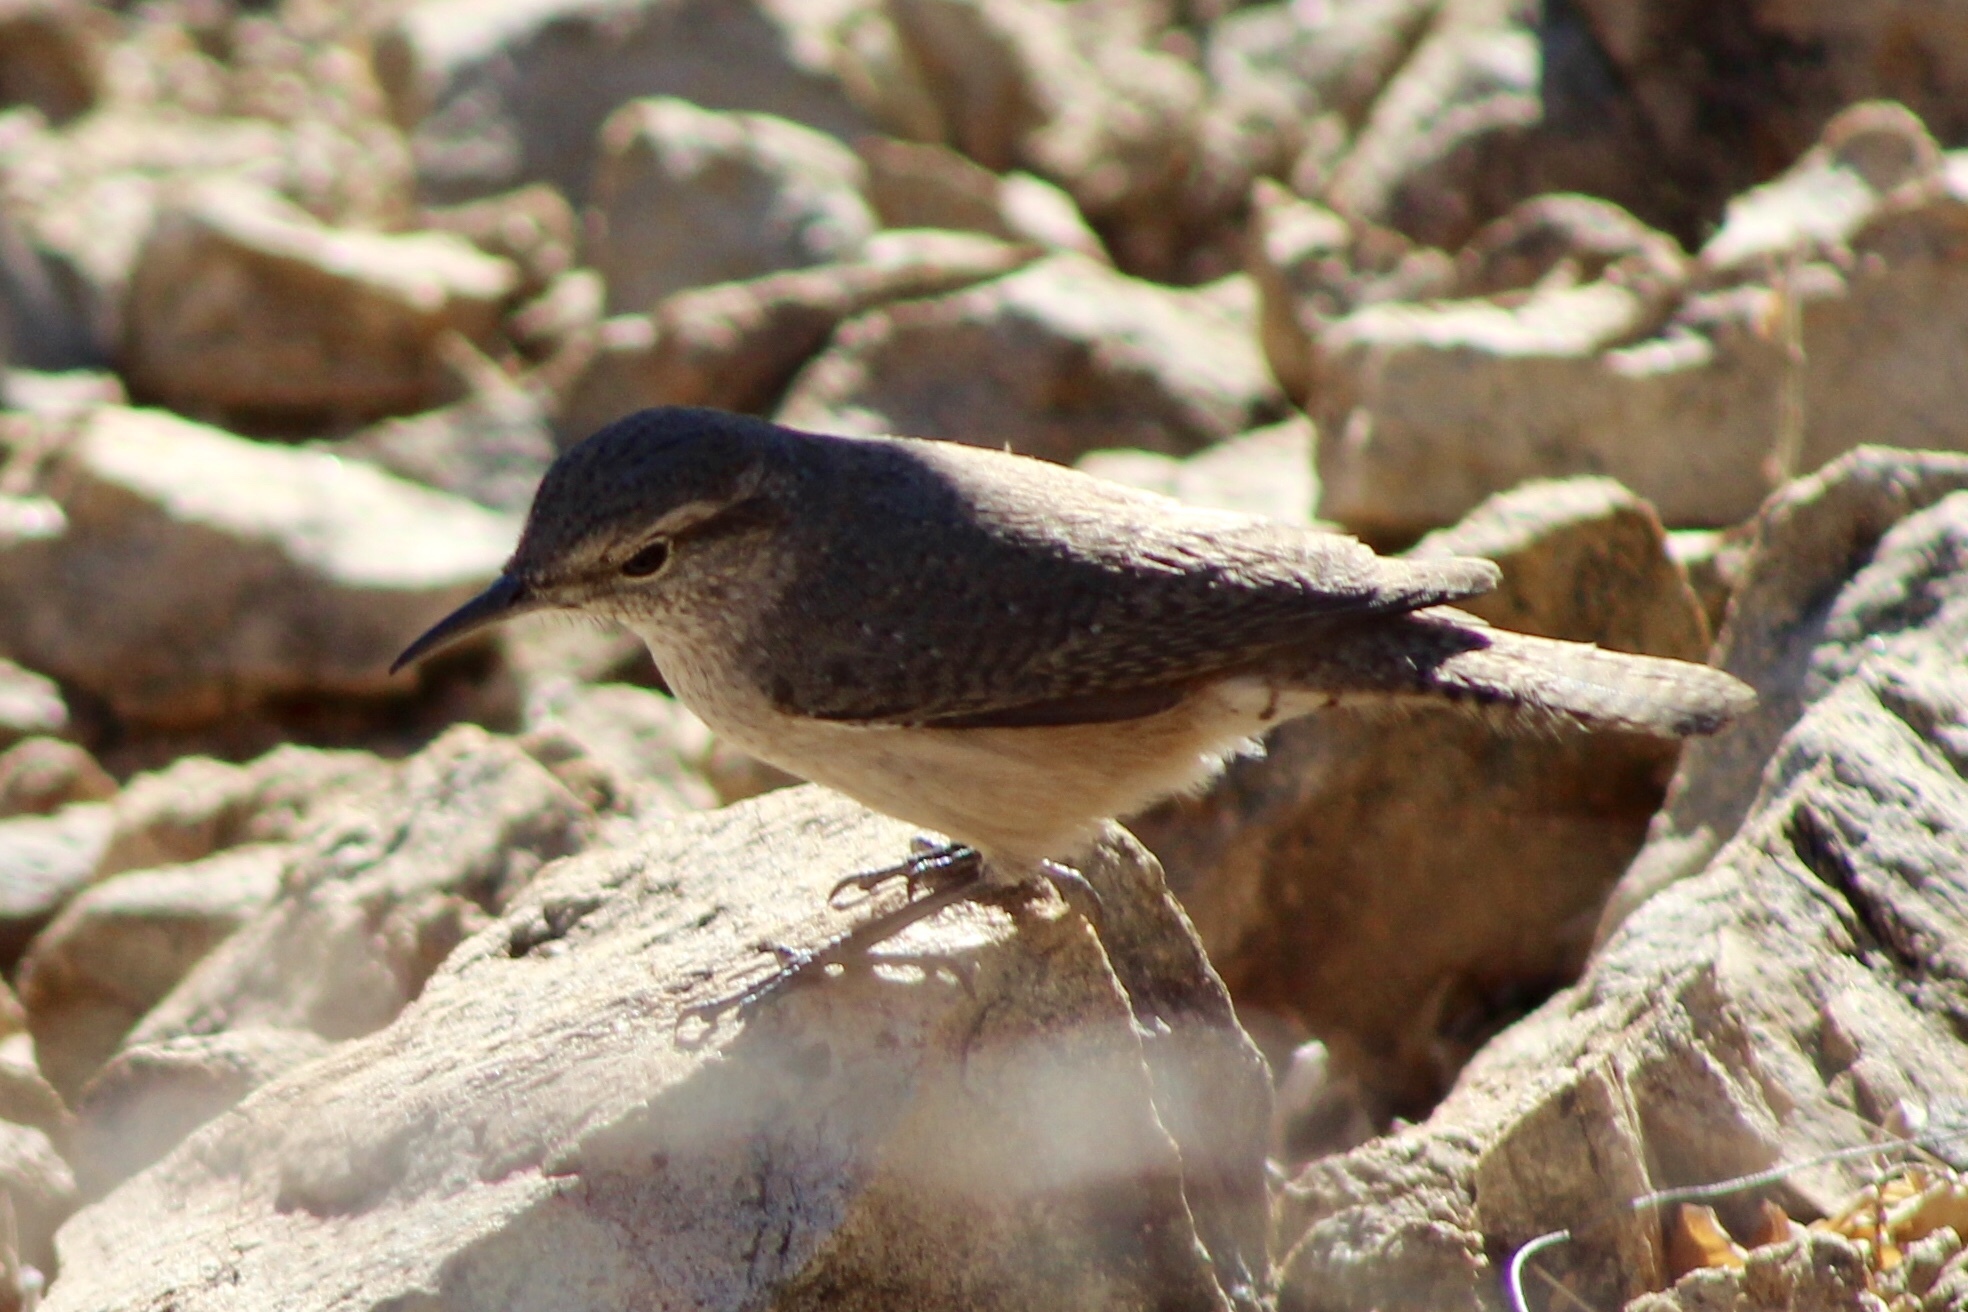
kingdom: Animalia
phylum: Chordata
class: Aves
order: Passeriformes
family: Troglodytidae
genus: Salpinctes
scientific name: Salpinctes obsoletus
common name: Rock wren
